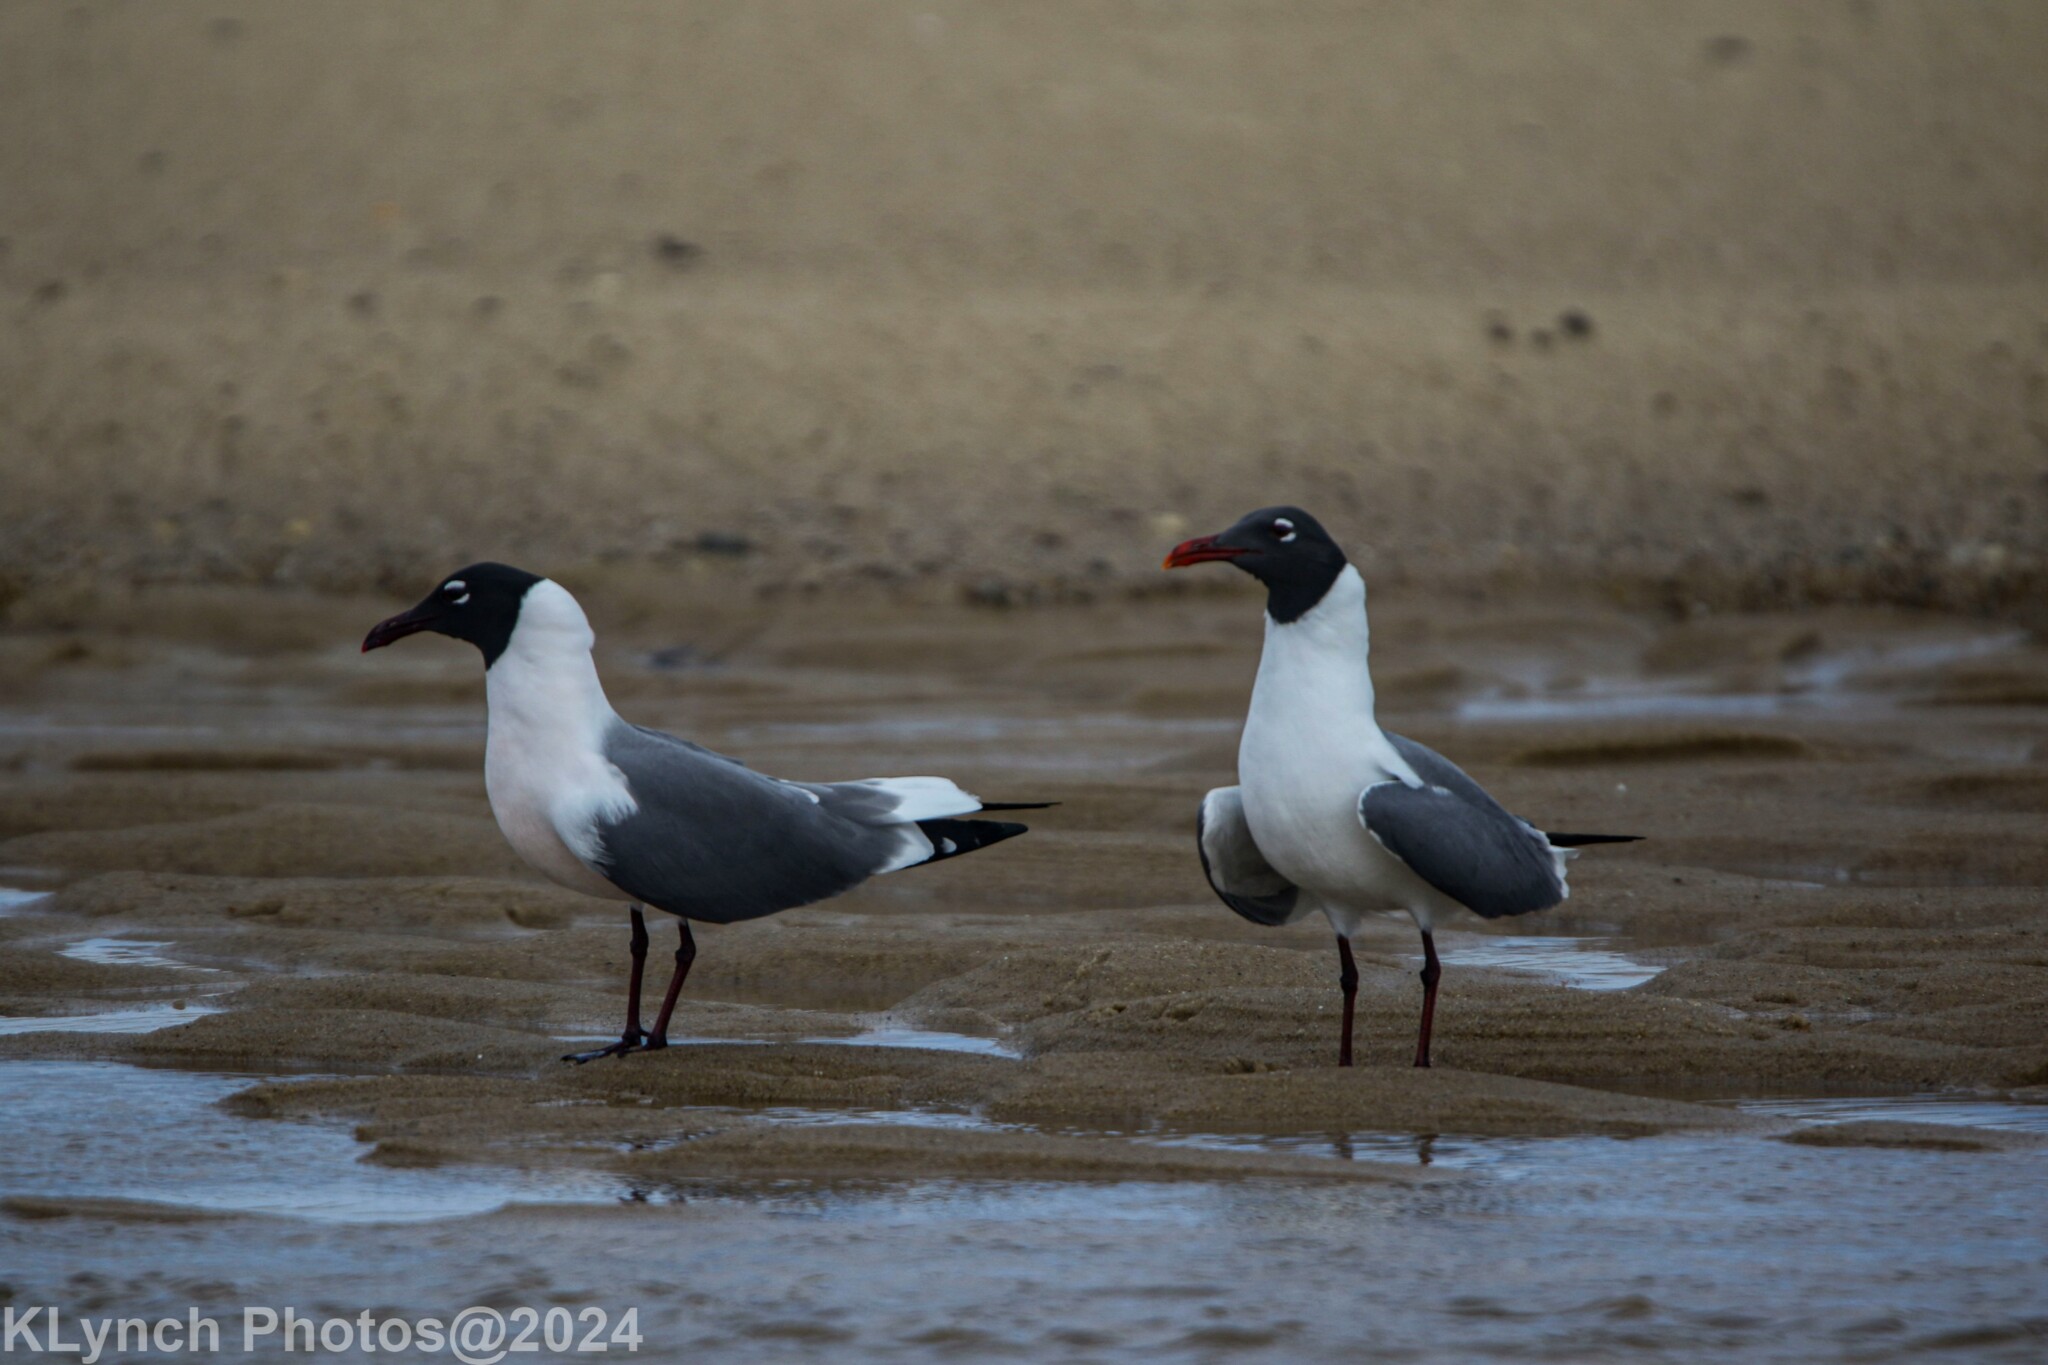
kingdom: Animalia
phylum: Chordata
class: Aves
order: Charadriiformes
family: Laridae
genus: Leucophaeus
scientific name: Leucophaeus atricilla
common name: Laughing gull
